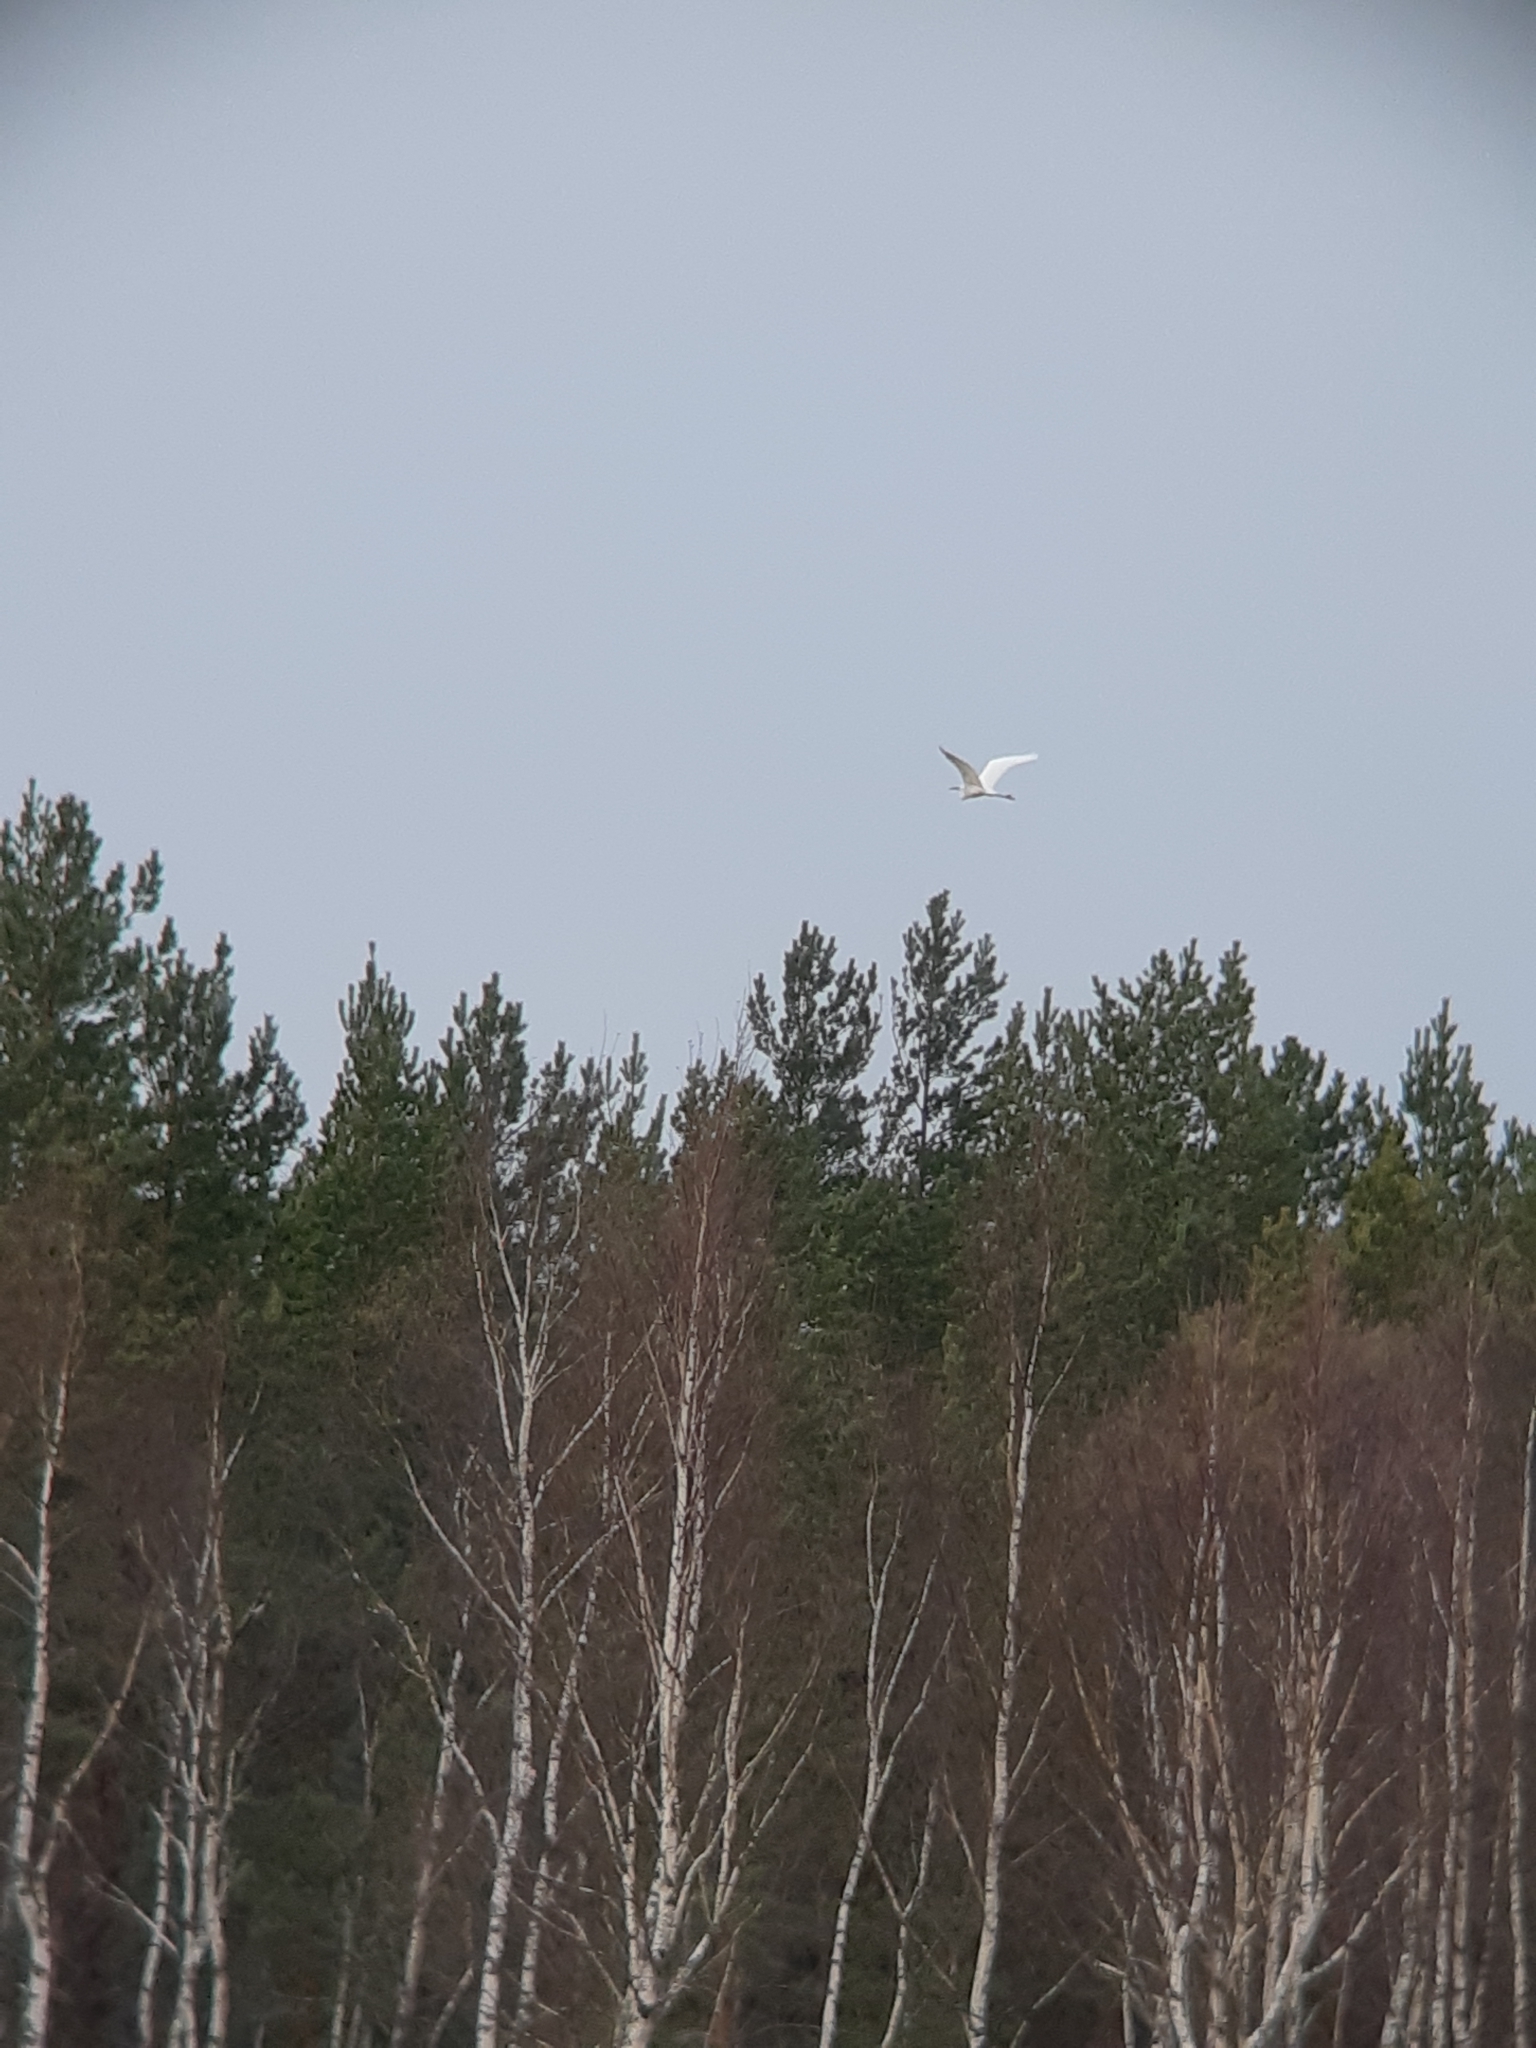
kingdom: Animalia
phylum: Chordata
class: Aves
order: Pelecaniformes
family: Ardeidae
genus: Ardea
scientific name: Ardea alba
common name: Great egret
